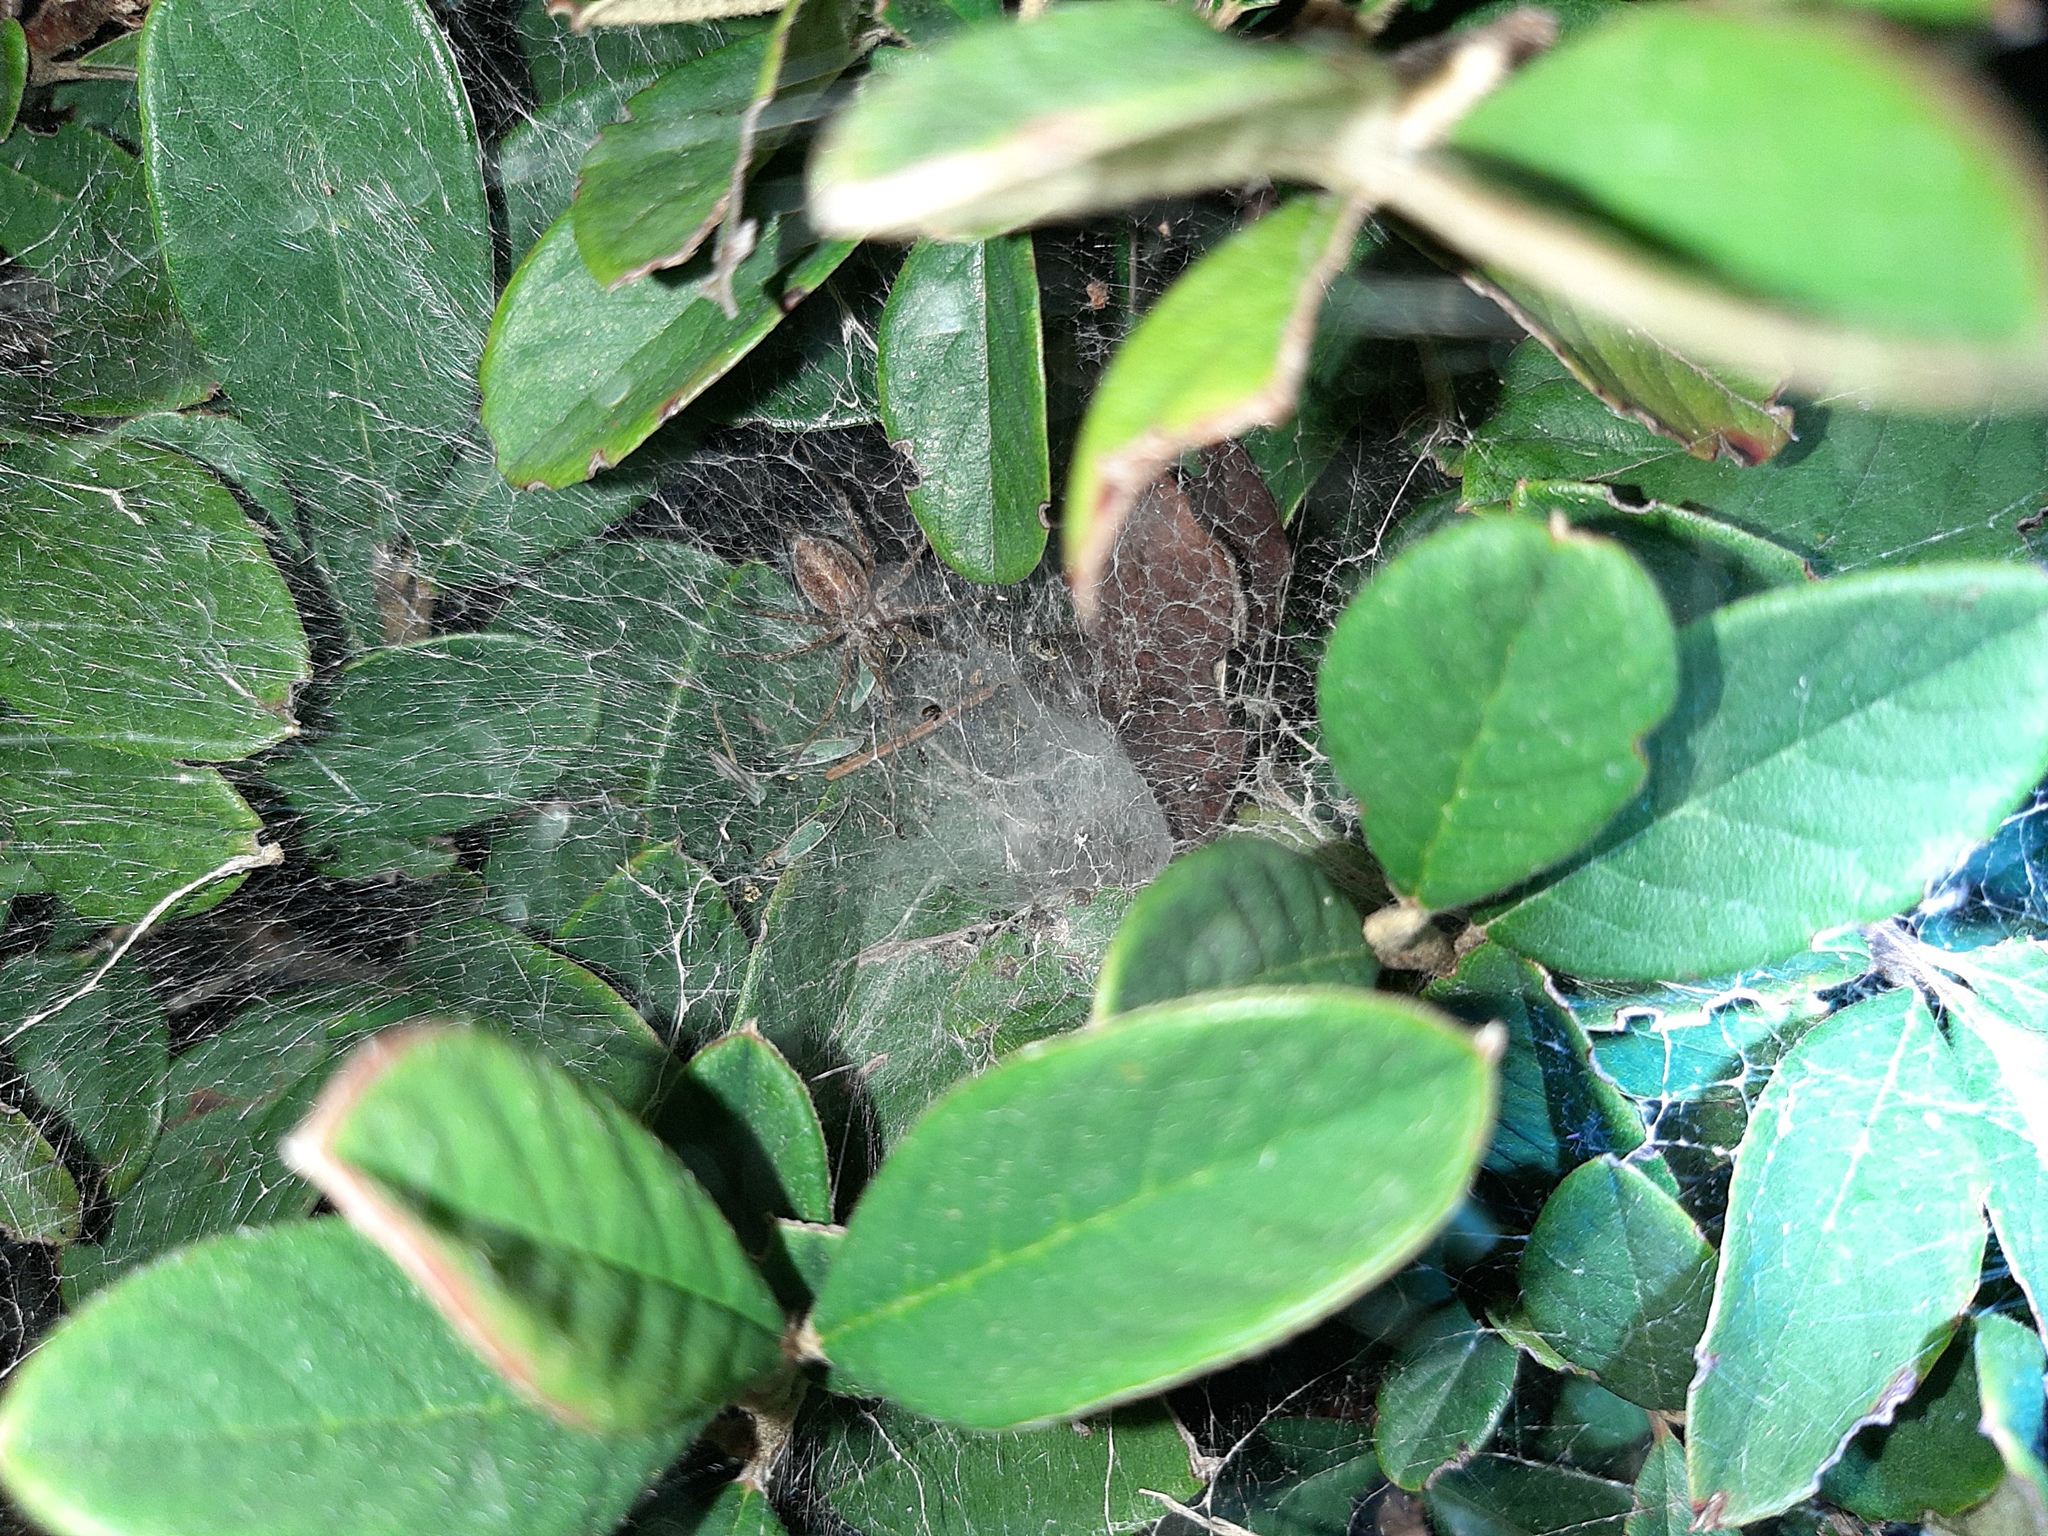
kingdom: Animalia
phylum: Arthropoda
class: Arachnida
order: Araneae
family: Agelenidae
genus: Allagelena
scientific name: Allagelena gracilens
